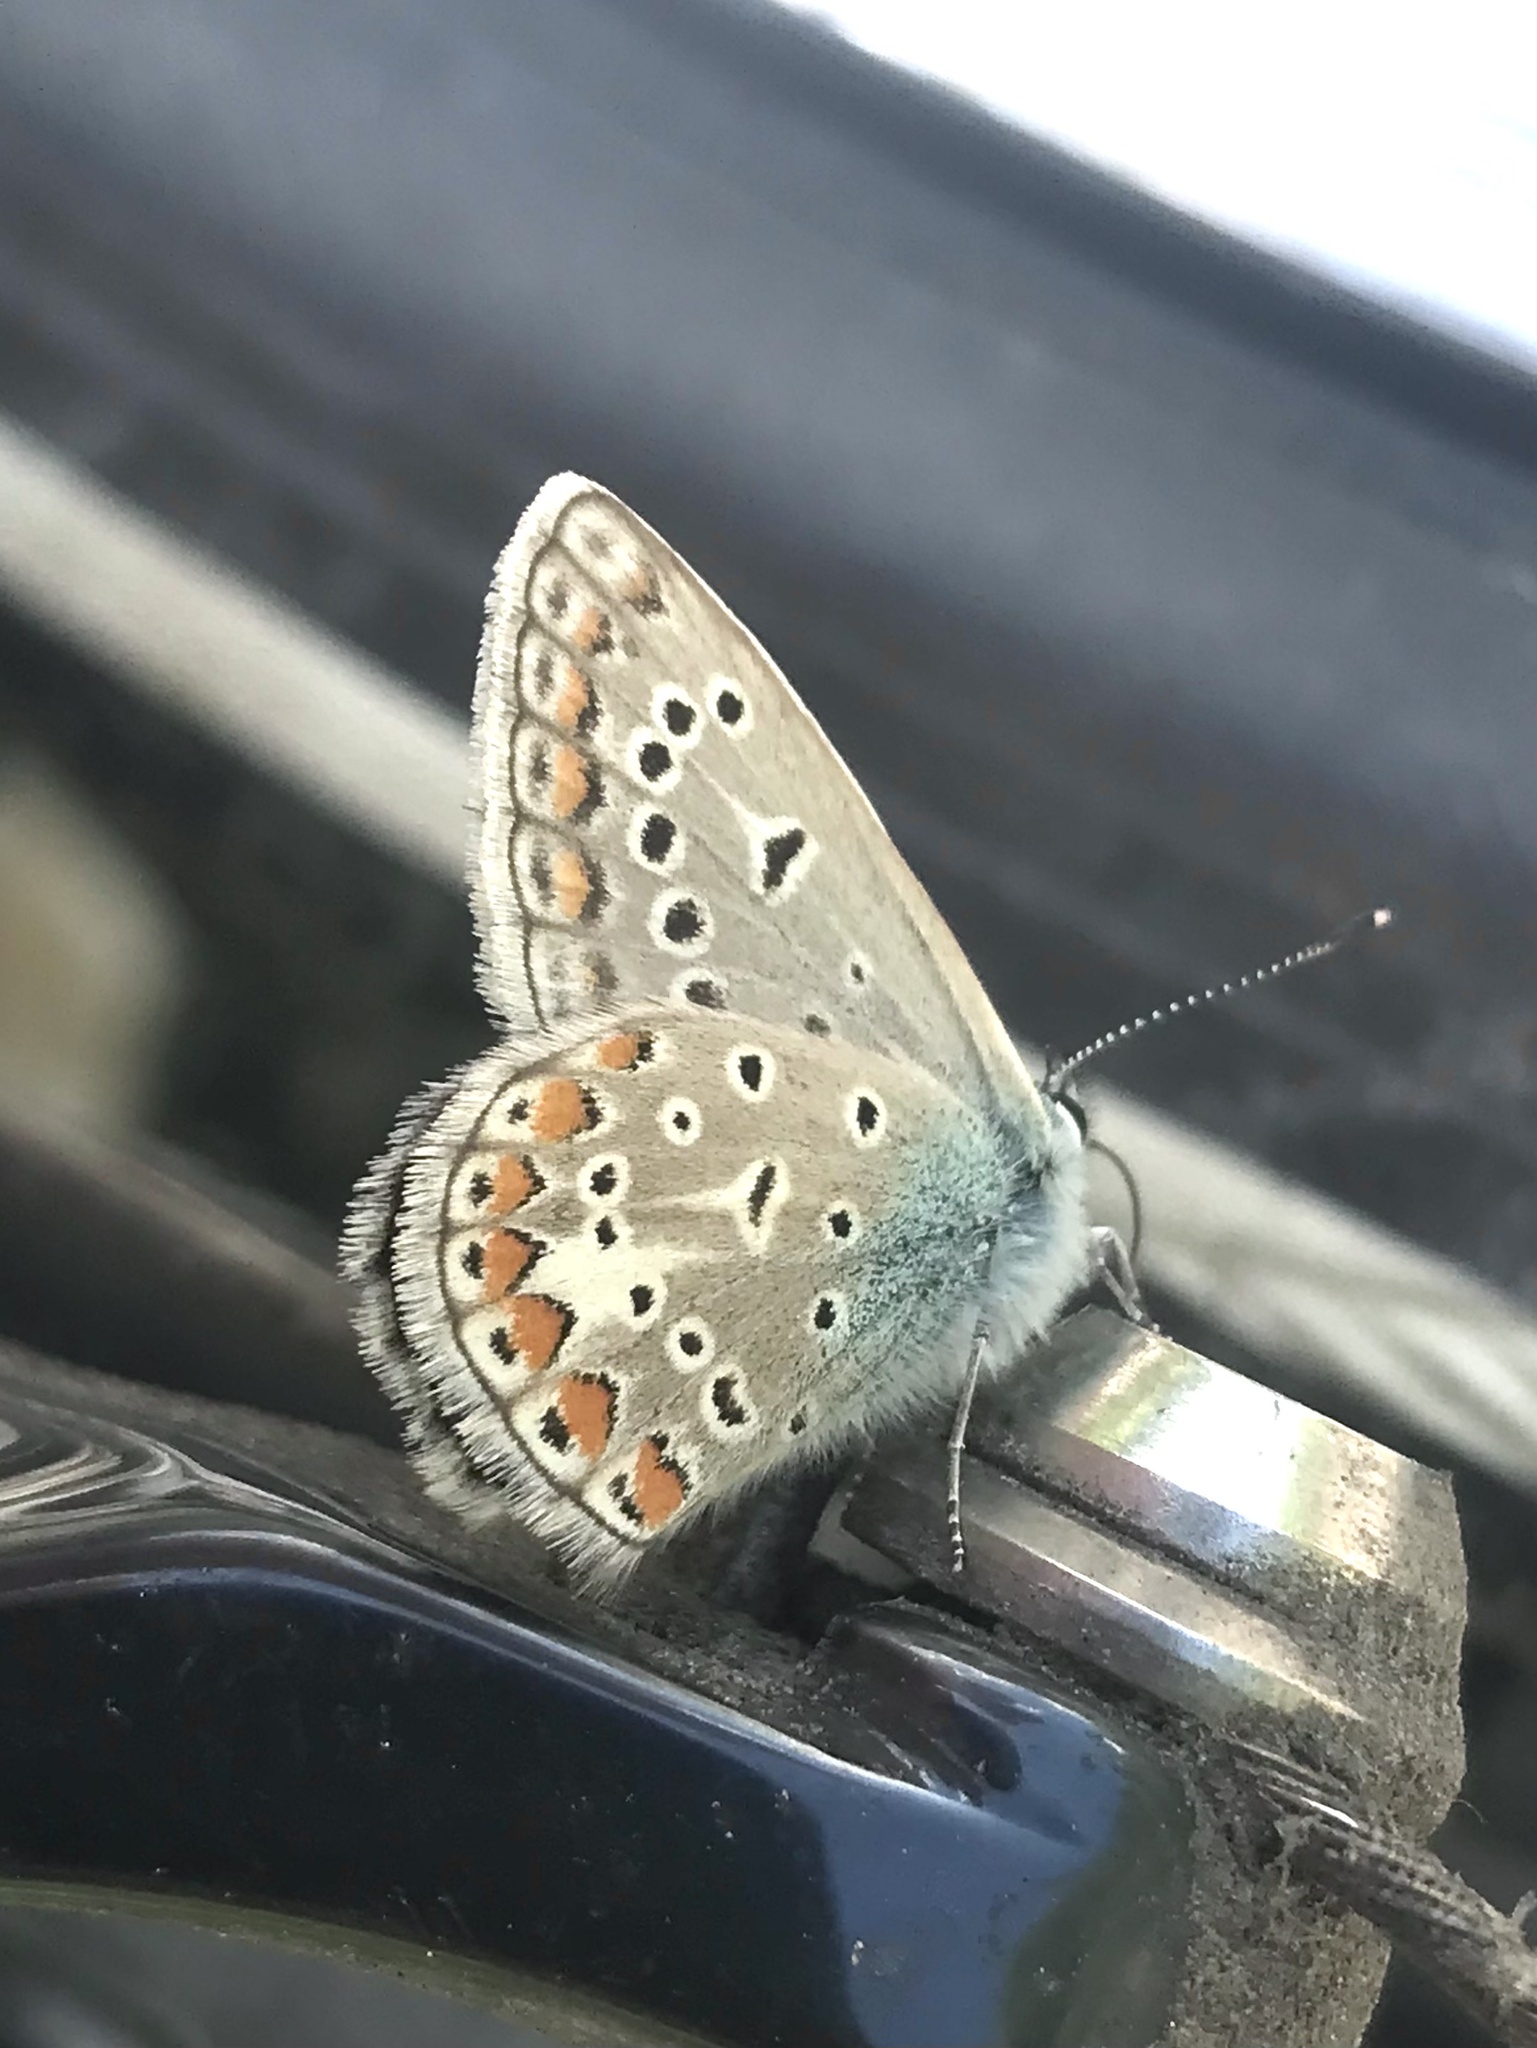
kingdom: Animalia
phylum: Arthropoda
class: Insecta
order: Lepidoptera
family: Lycaenidae
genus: Polyommatus
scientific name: Polyommatus icarus
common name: Common blue
